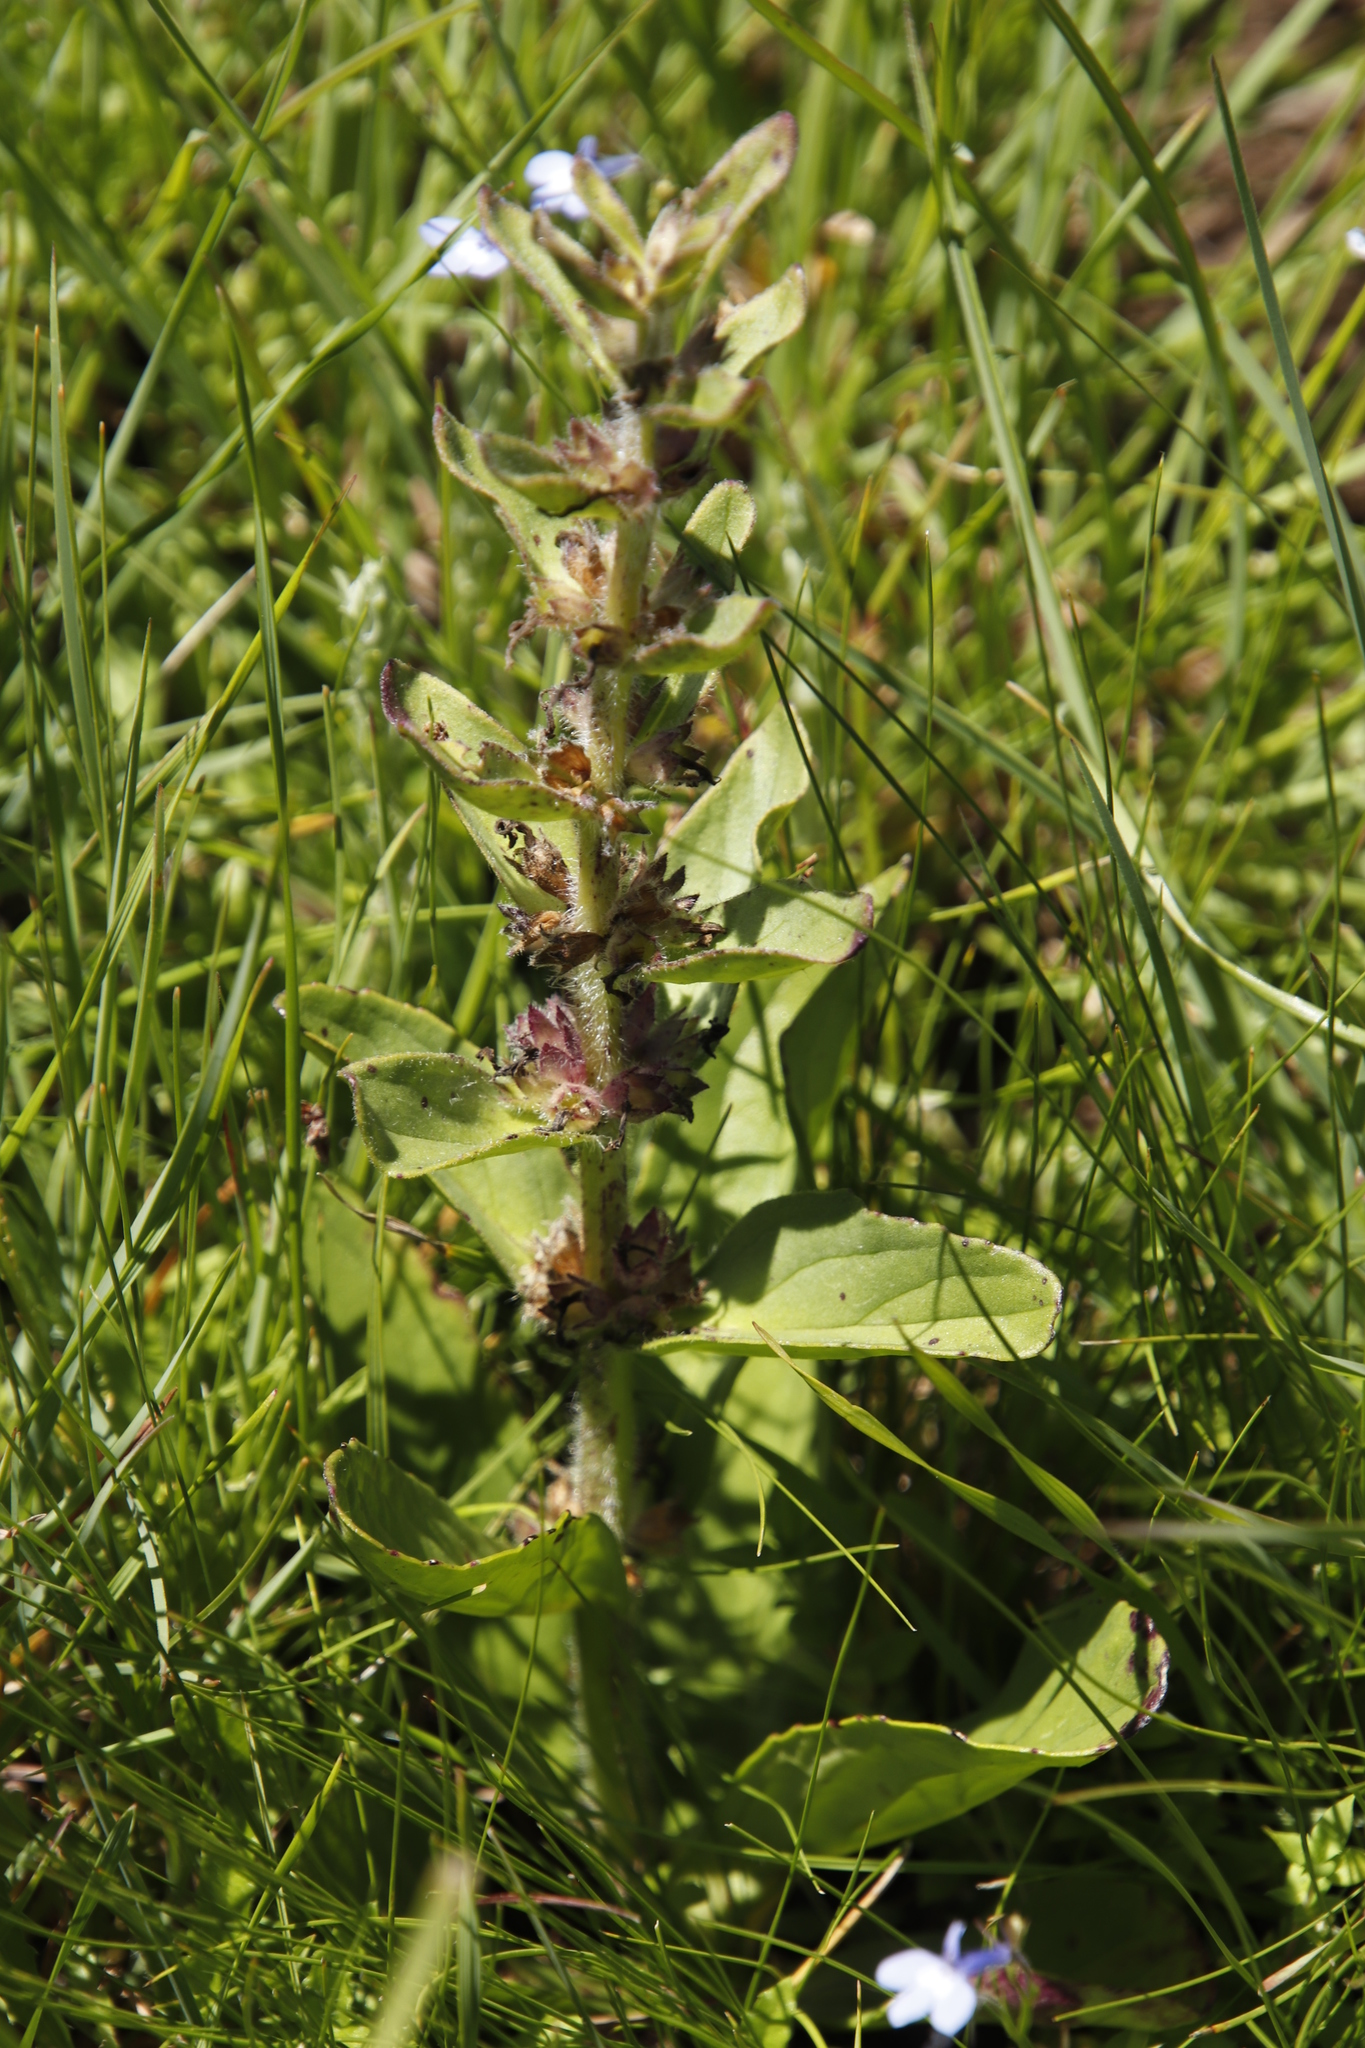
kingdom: Plantae
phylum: Tracheophyta
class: Magnoliopsida
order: Lamiales
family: Lamiaceae
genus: Ajuga
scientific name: Ajuga ophrydis
